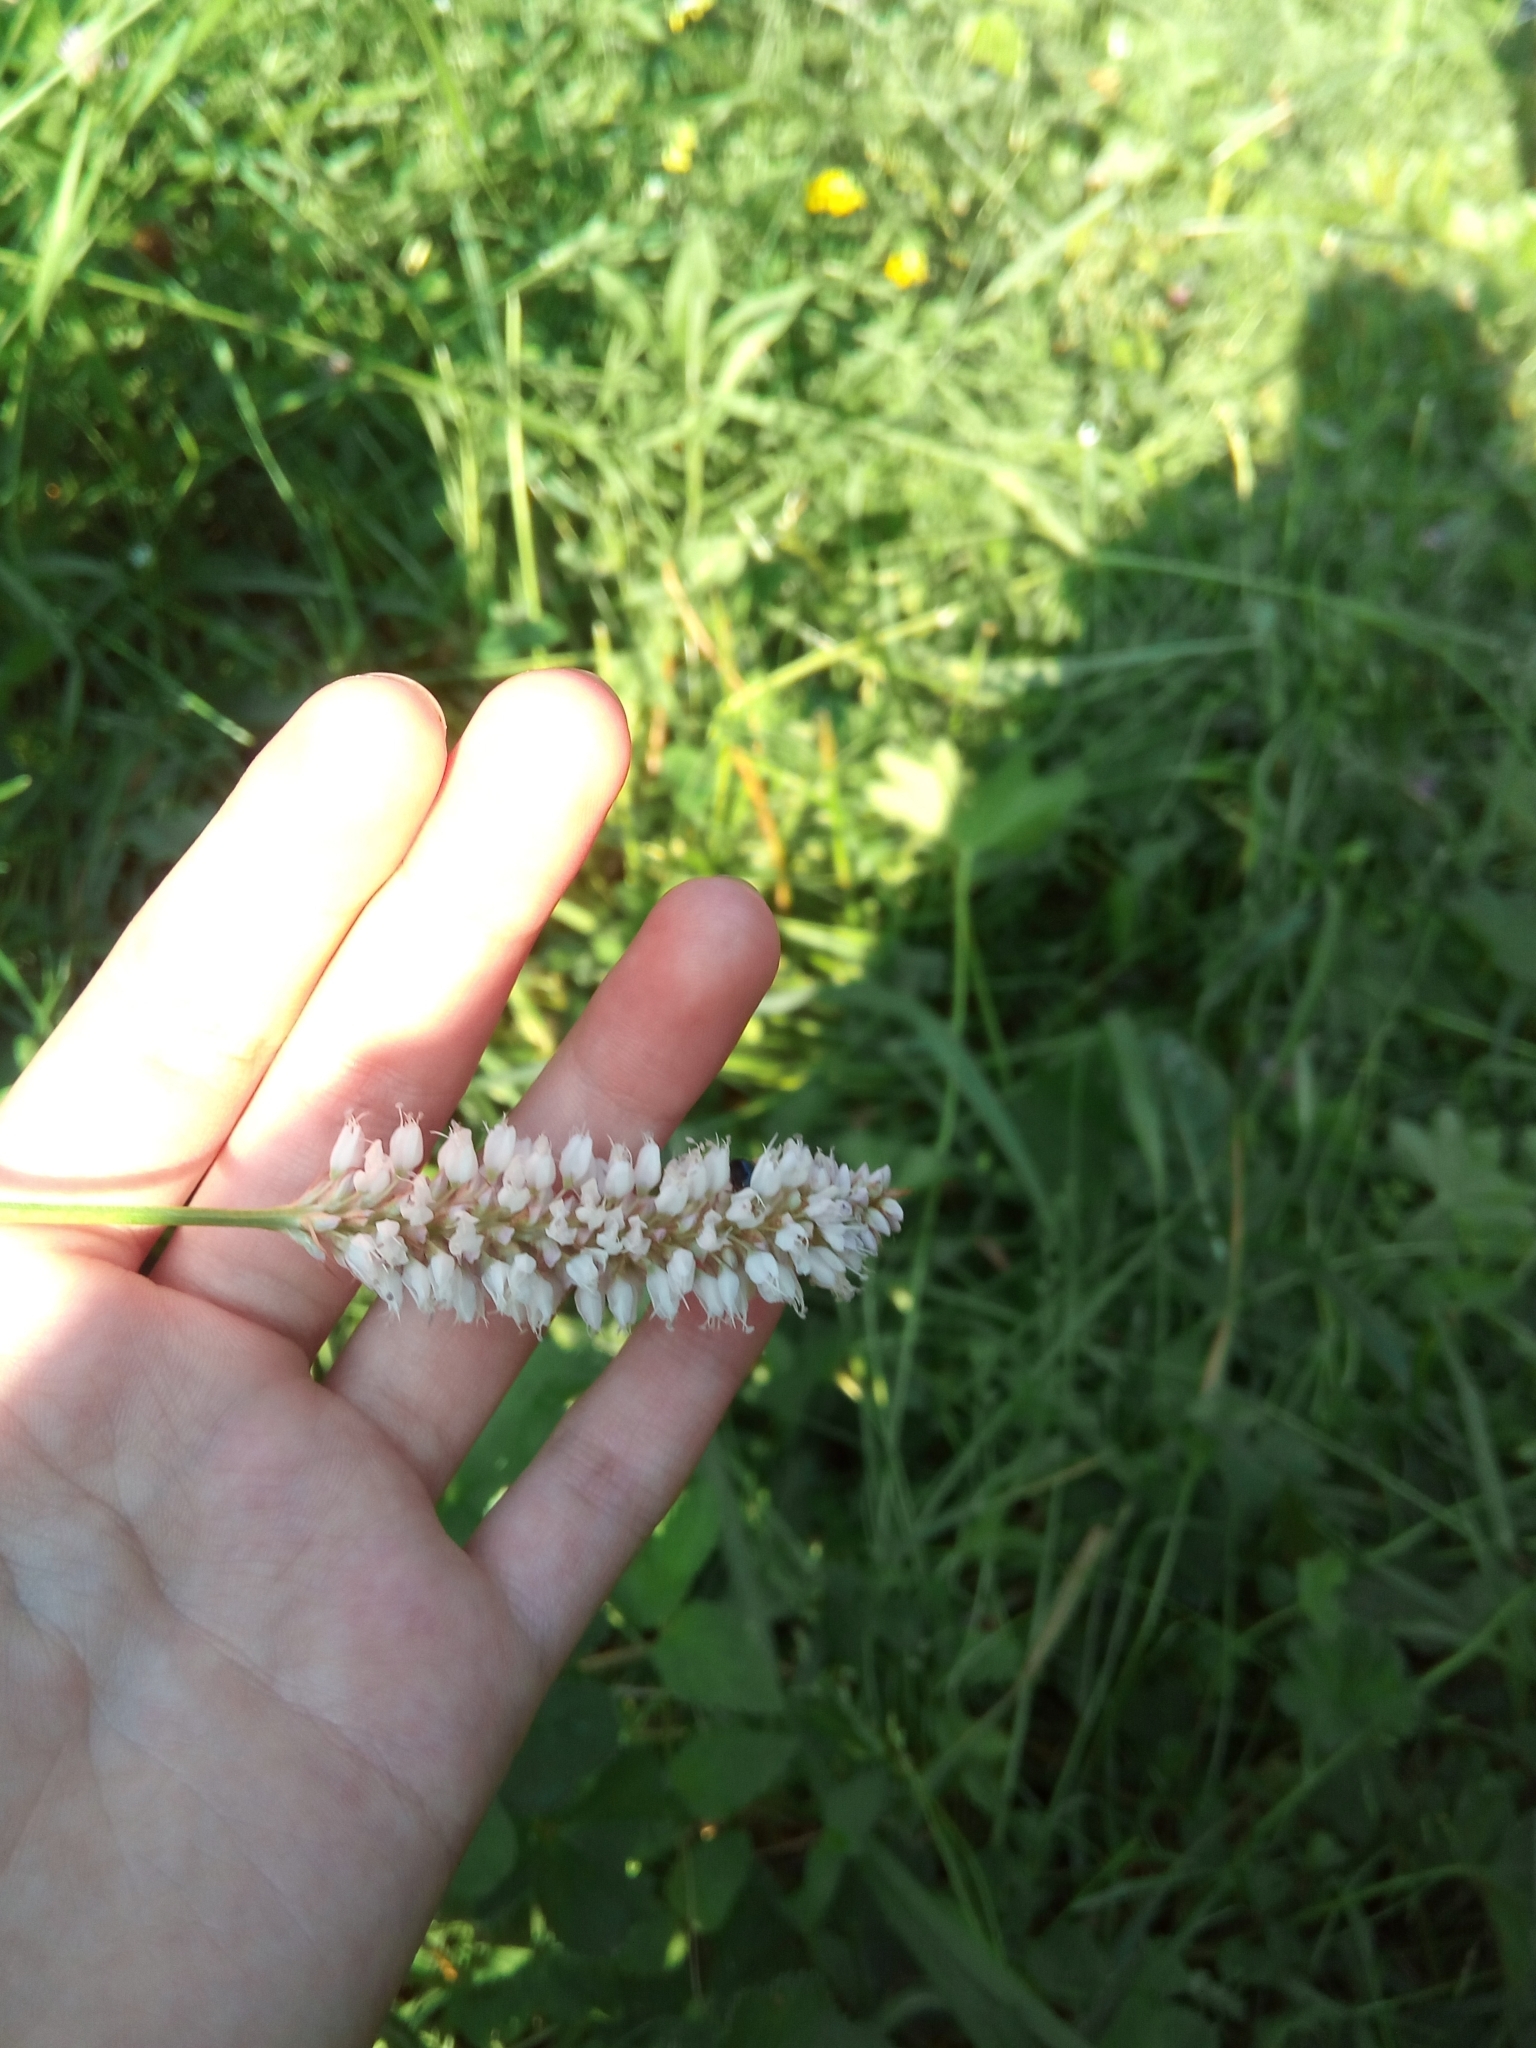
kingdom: Plantae
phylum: Tracheophyta
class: Magnoliopsida
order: Caryophyllales
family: Polygonaceae
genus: Bistorta
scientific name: Bistorta officinalis
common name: Common bistort
